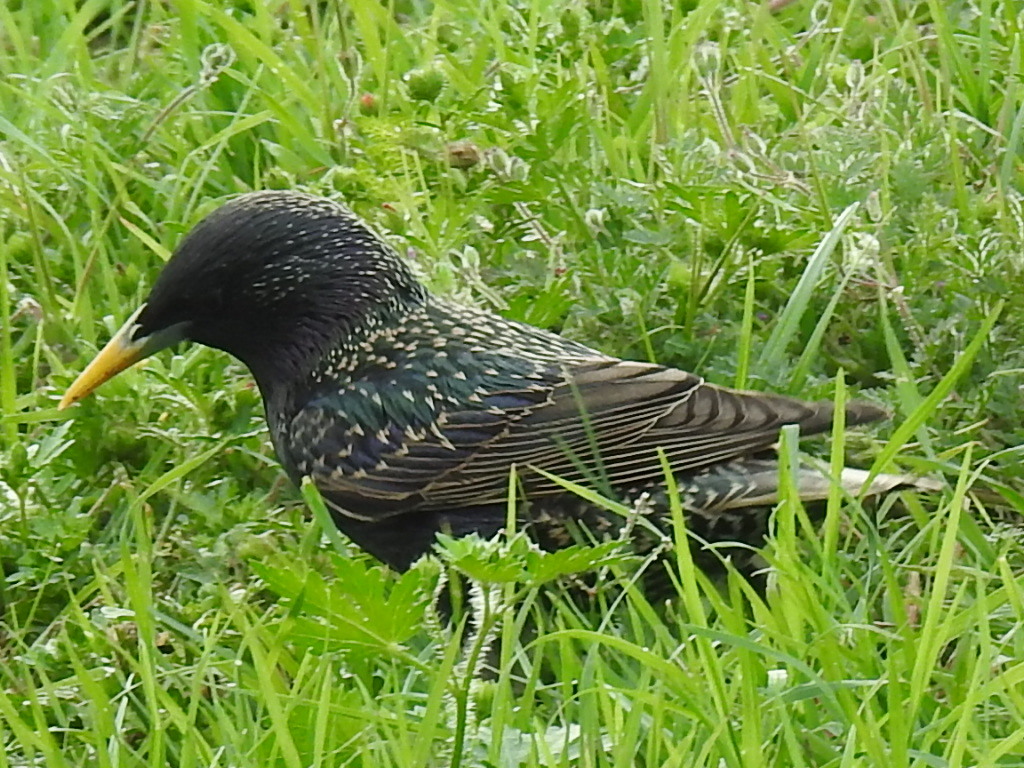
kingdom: Animalia
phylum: Chordata
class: Aves
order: Passeriformes
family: Sturnidae
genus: Sturnus
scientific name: Sturnus vulgaris
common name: Common starling
